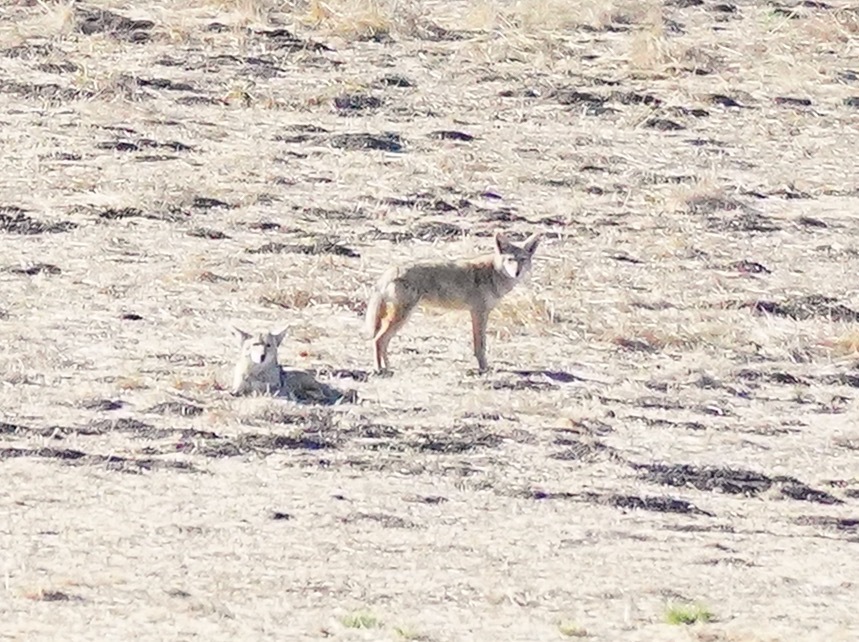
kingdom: Animalia
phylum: Chordata
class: Mammalia
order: Carnivora
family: Canidae
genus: Canis
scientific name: Canis latrans
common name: Coyote
